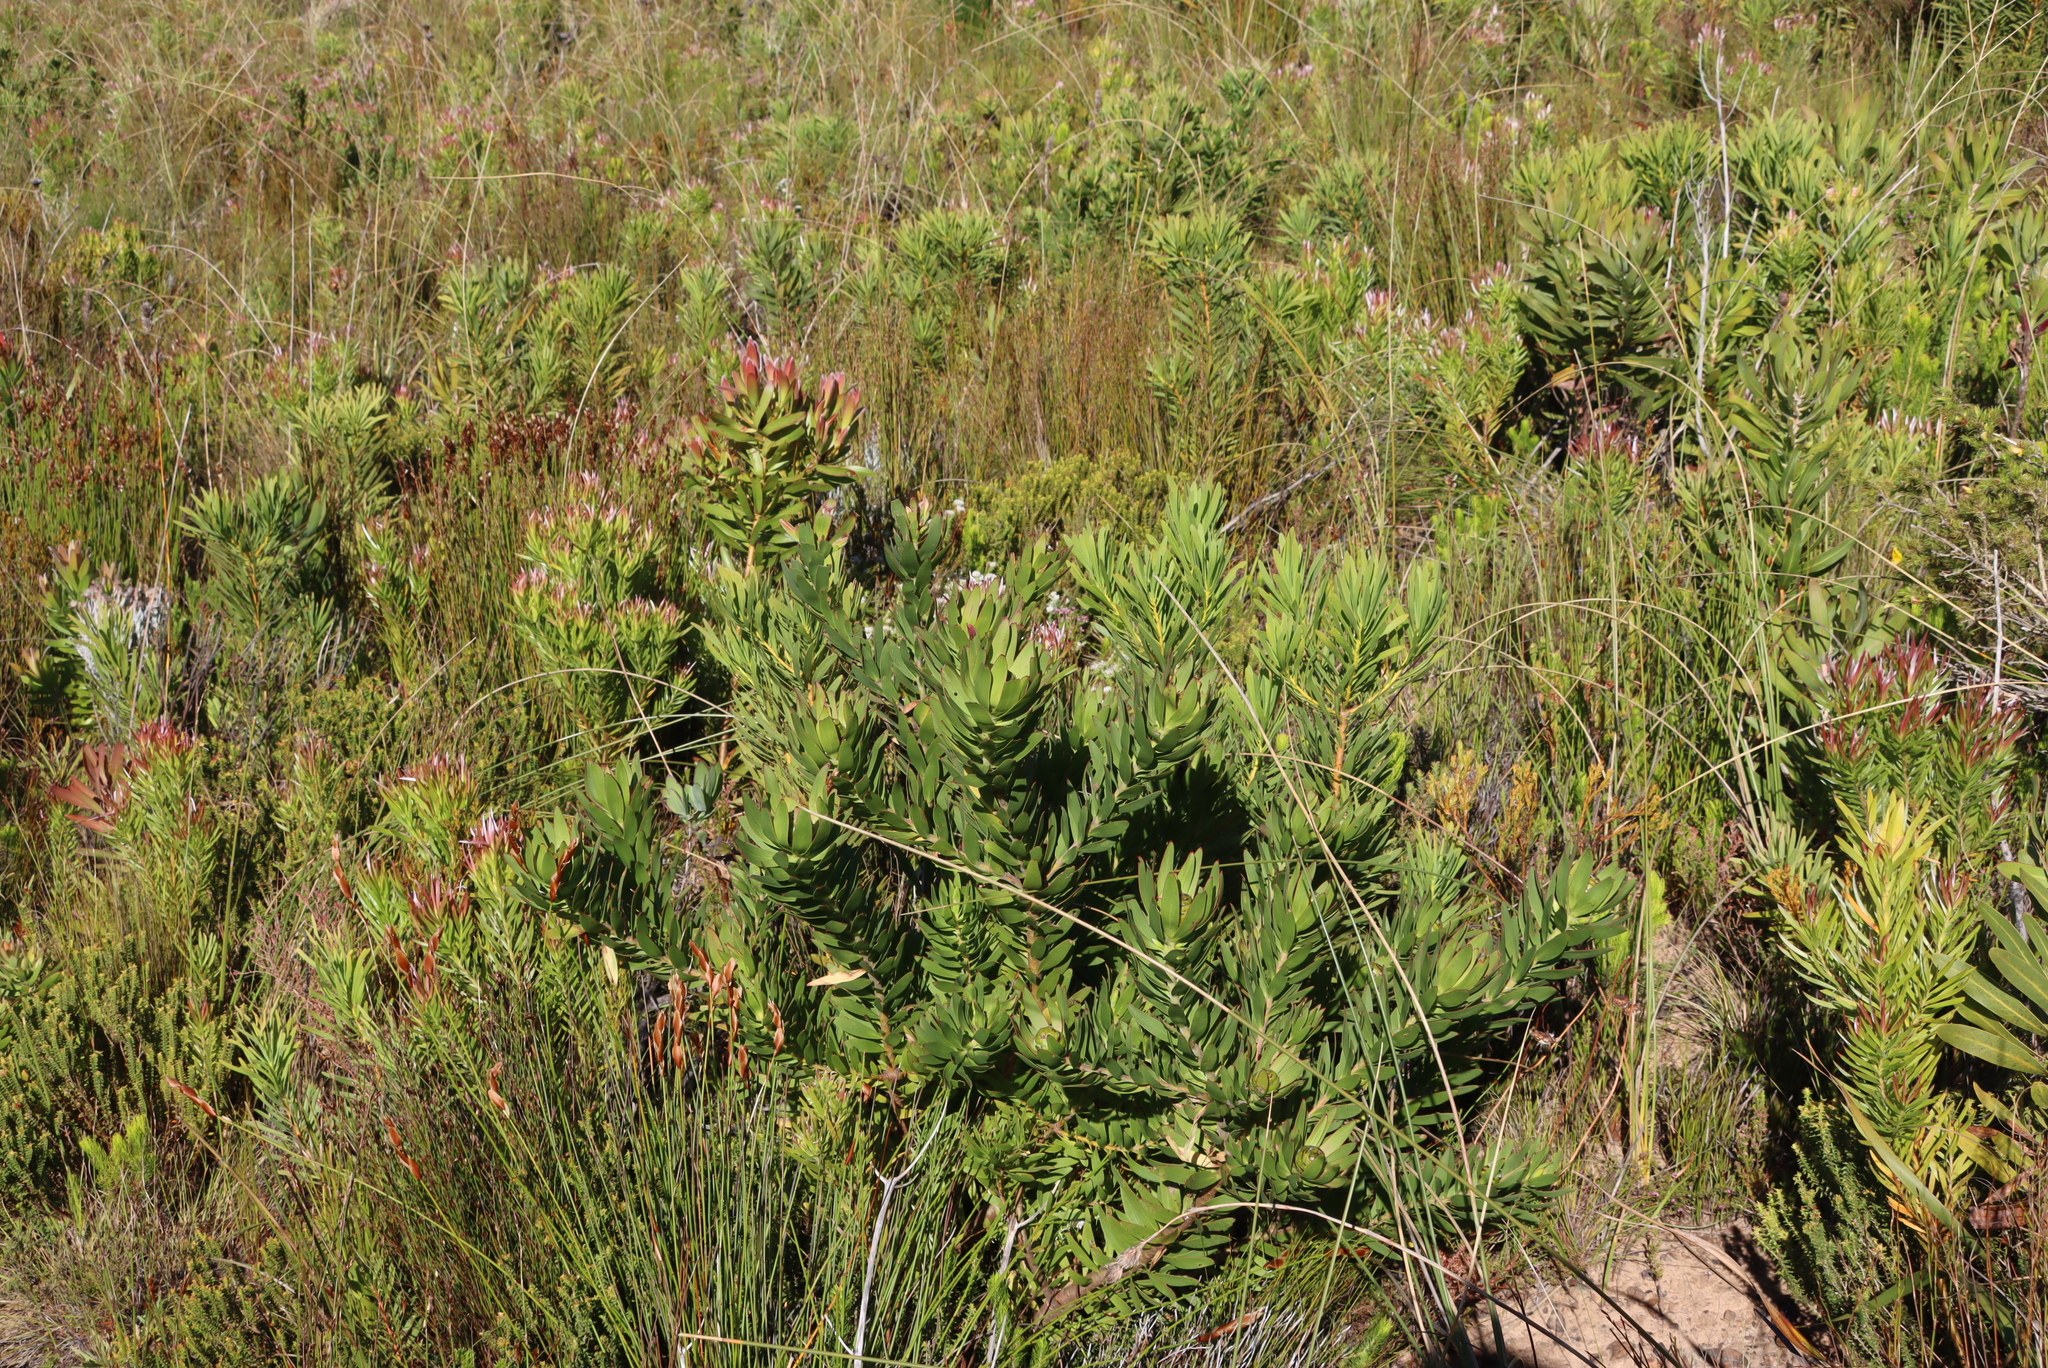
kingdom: Plantae
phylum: Tracheophyta
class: Magnoliopsida
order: Proteales
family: Proteaceae
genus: Leucadendron
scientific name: Leucadendron sessile
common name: Western sunbush
